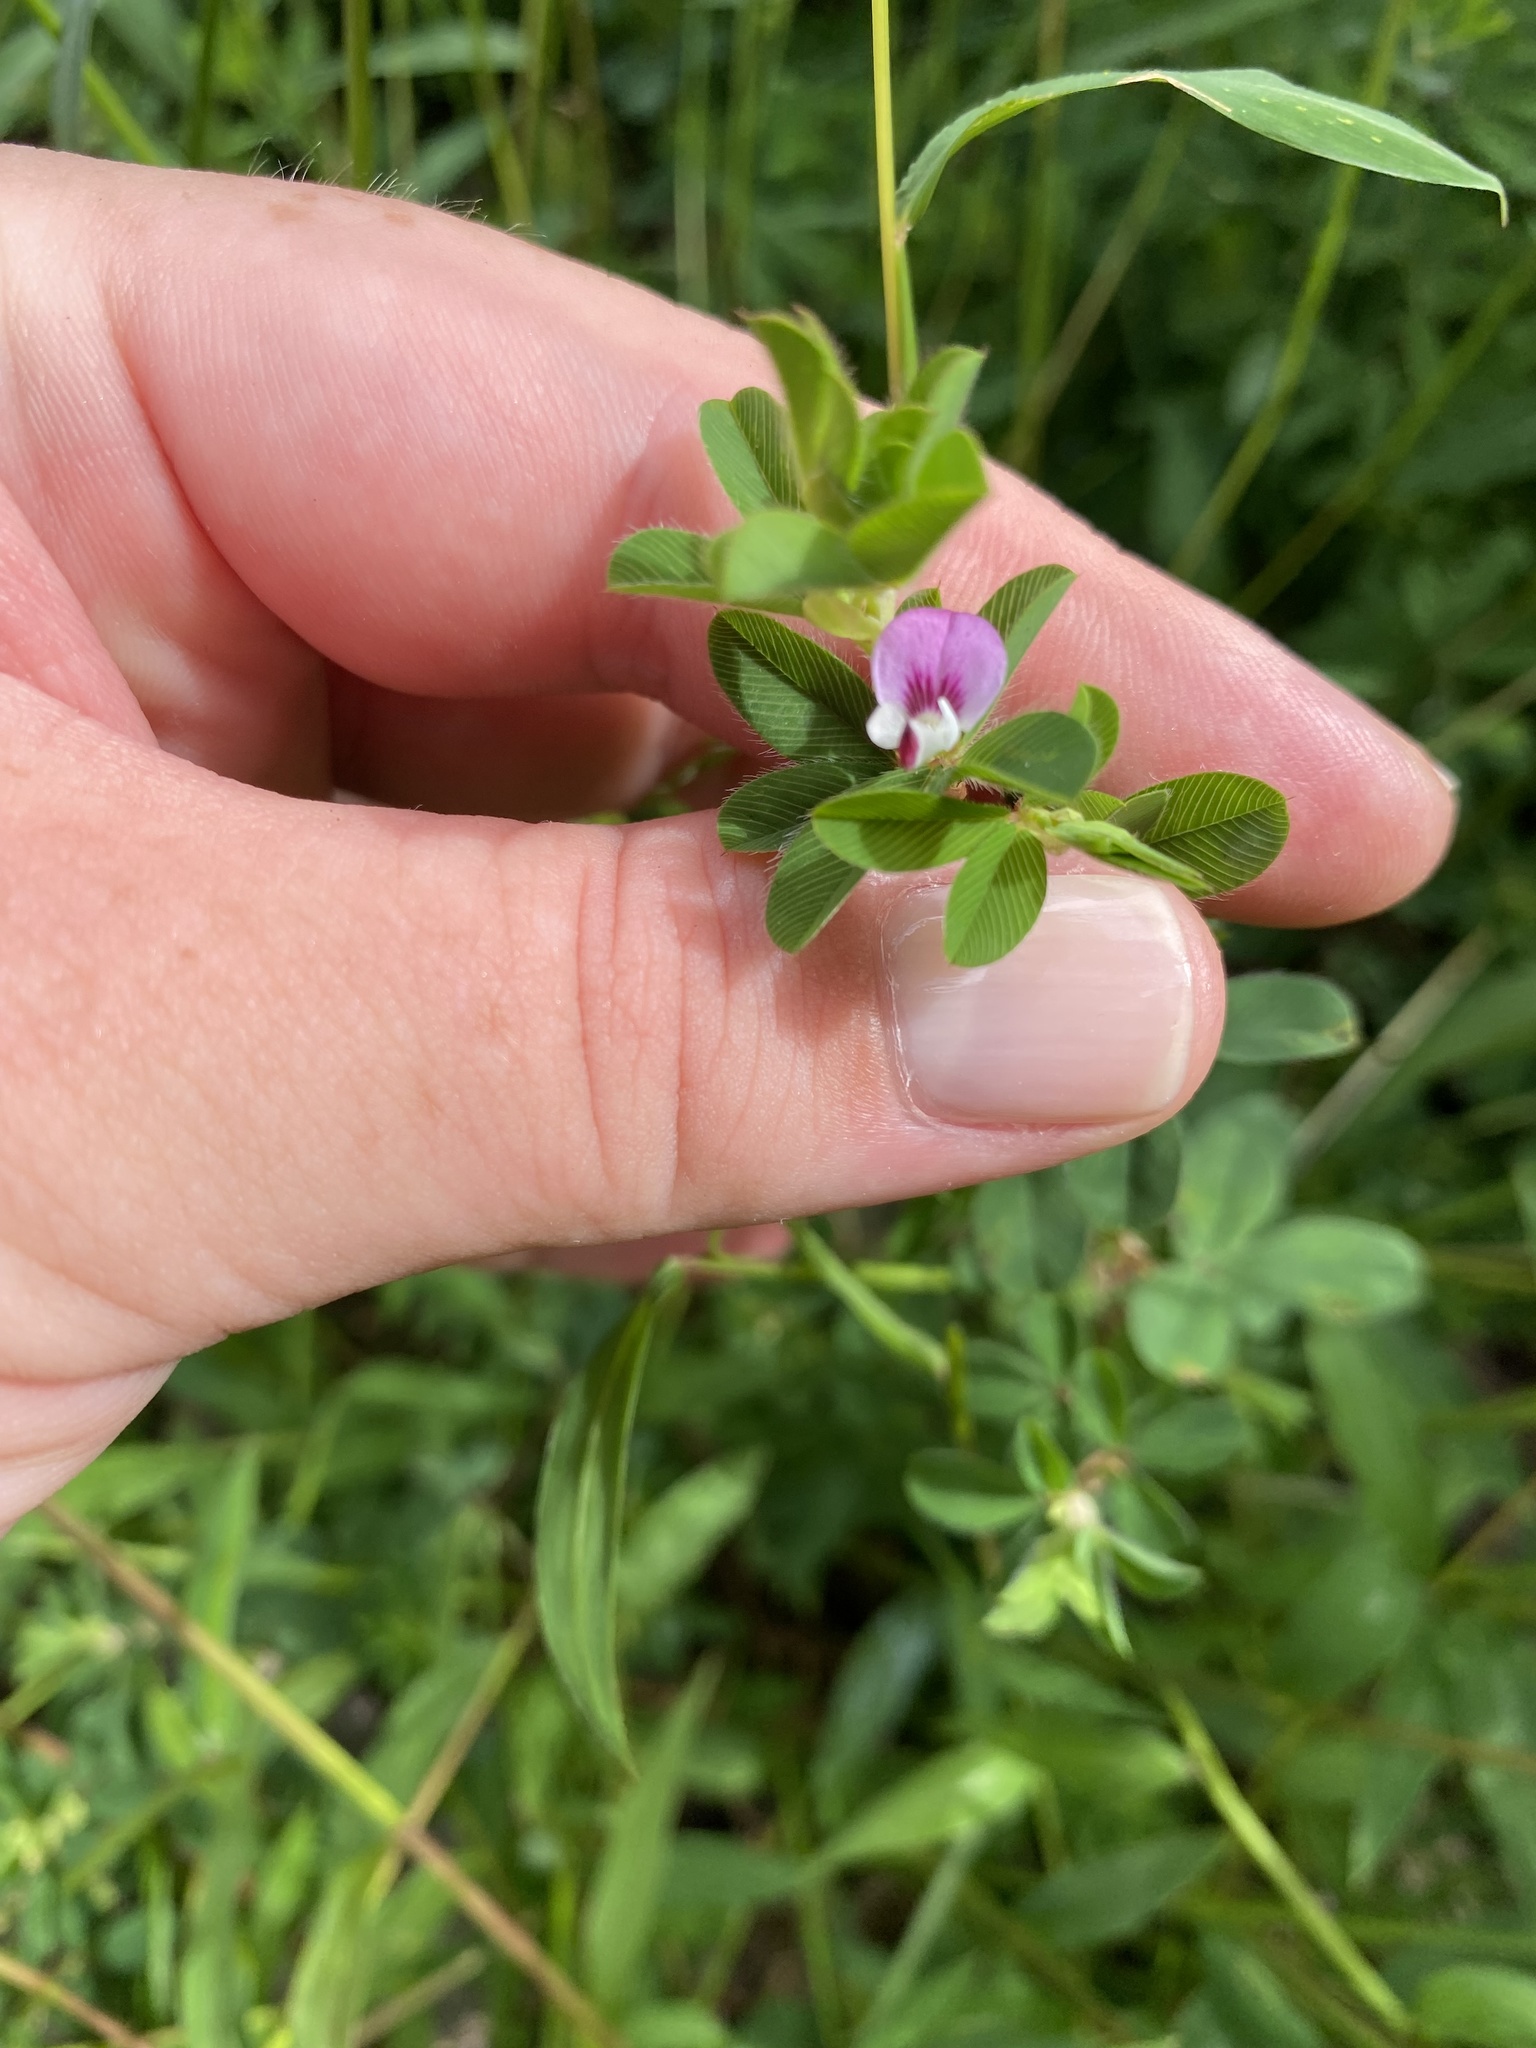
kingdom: Plantae
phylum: Tracheophyta
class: Magnoliopsida
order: Fabales
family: Fabaceae
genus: Kummerowia
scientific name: Kummerowia stipulacea
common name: Korean clover
